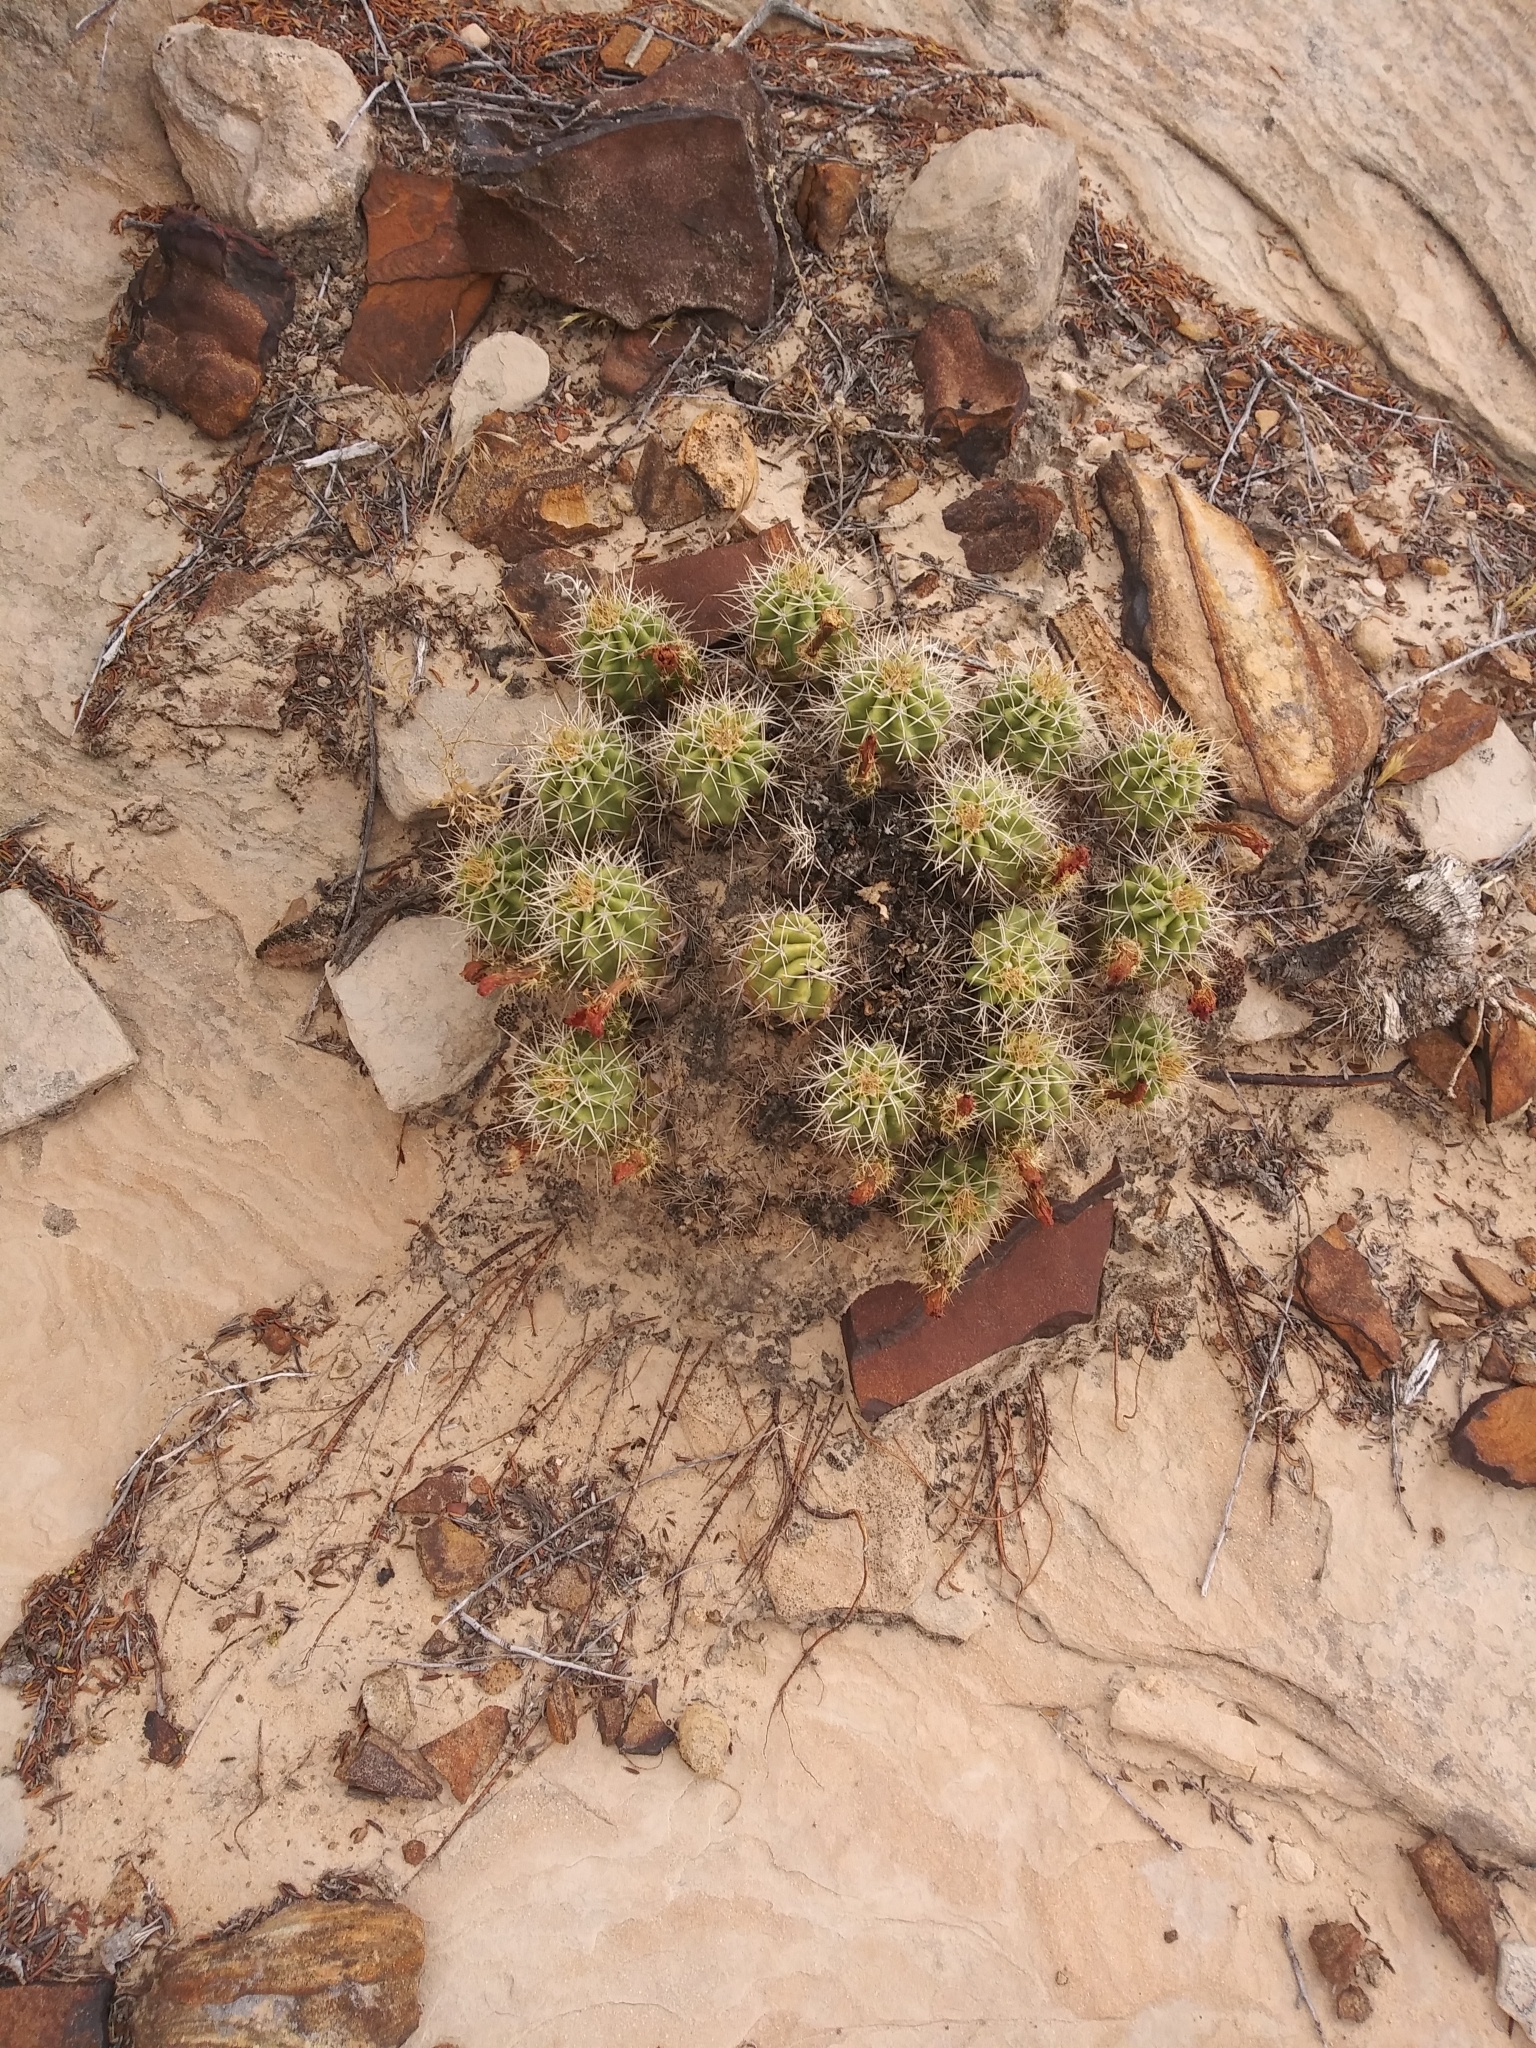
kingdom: Plantae
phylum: Tracheophyta
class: Magnoliopsida
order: Caryophyllales
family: Cactaceae
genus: Echinocereus
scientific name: Echinocereus triglochidiatus
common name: Claretcup hedgehog
